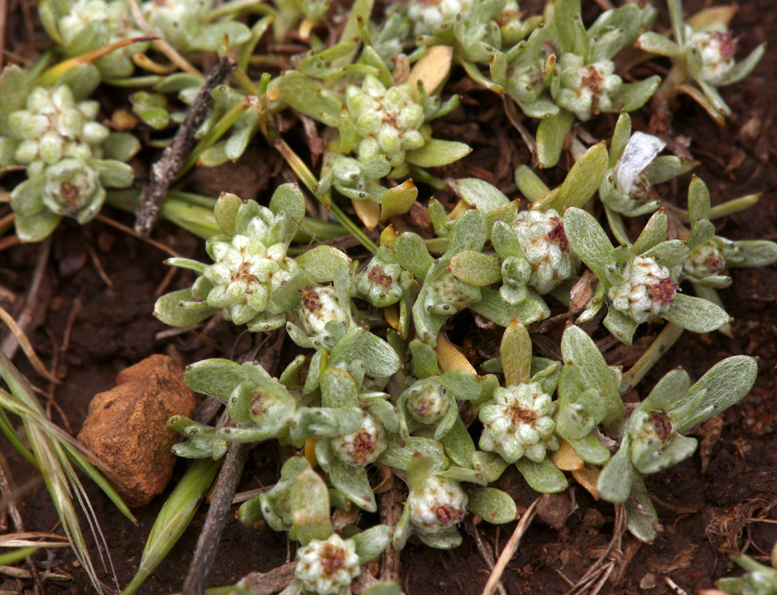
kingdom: Plantae
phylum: Tracheophyta
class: Magnoliopsida
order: Asterales
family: Asteraceae
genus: Psilocarphus
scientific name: Psilocarphus tenellus
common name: Slender woolly-marbles
